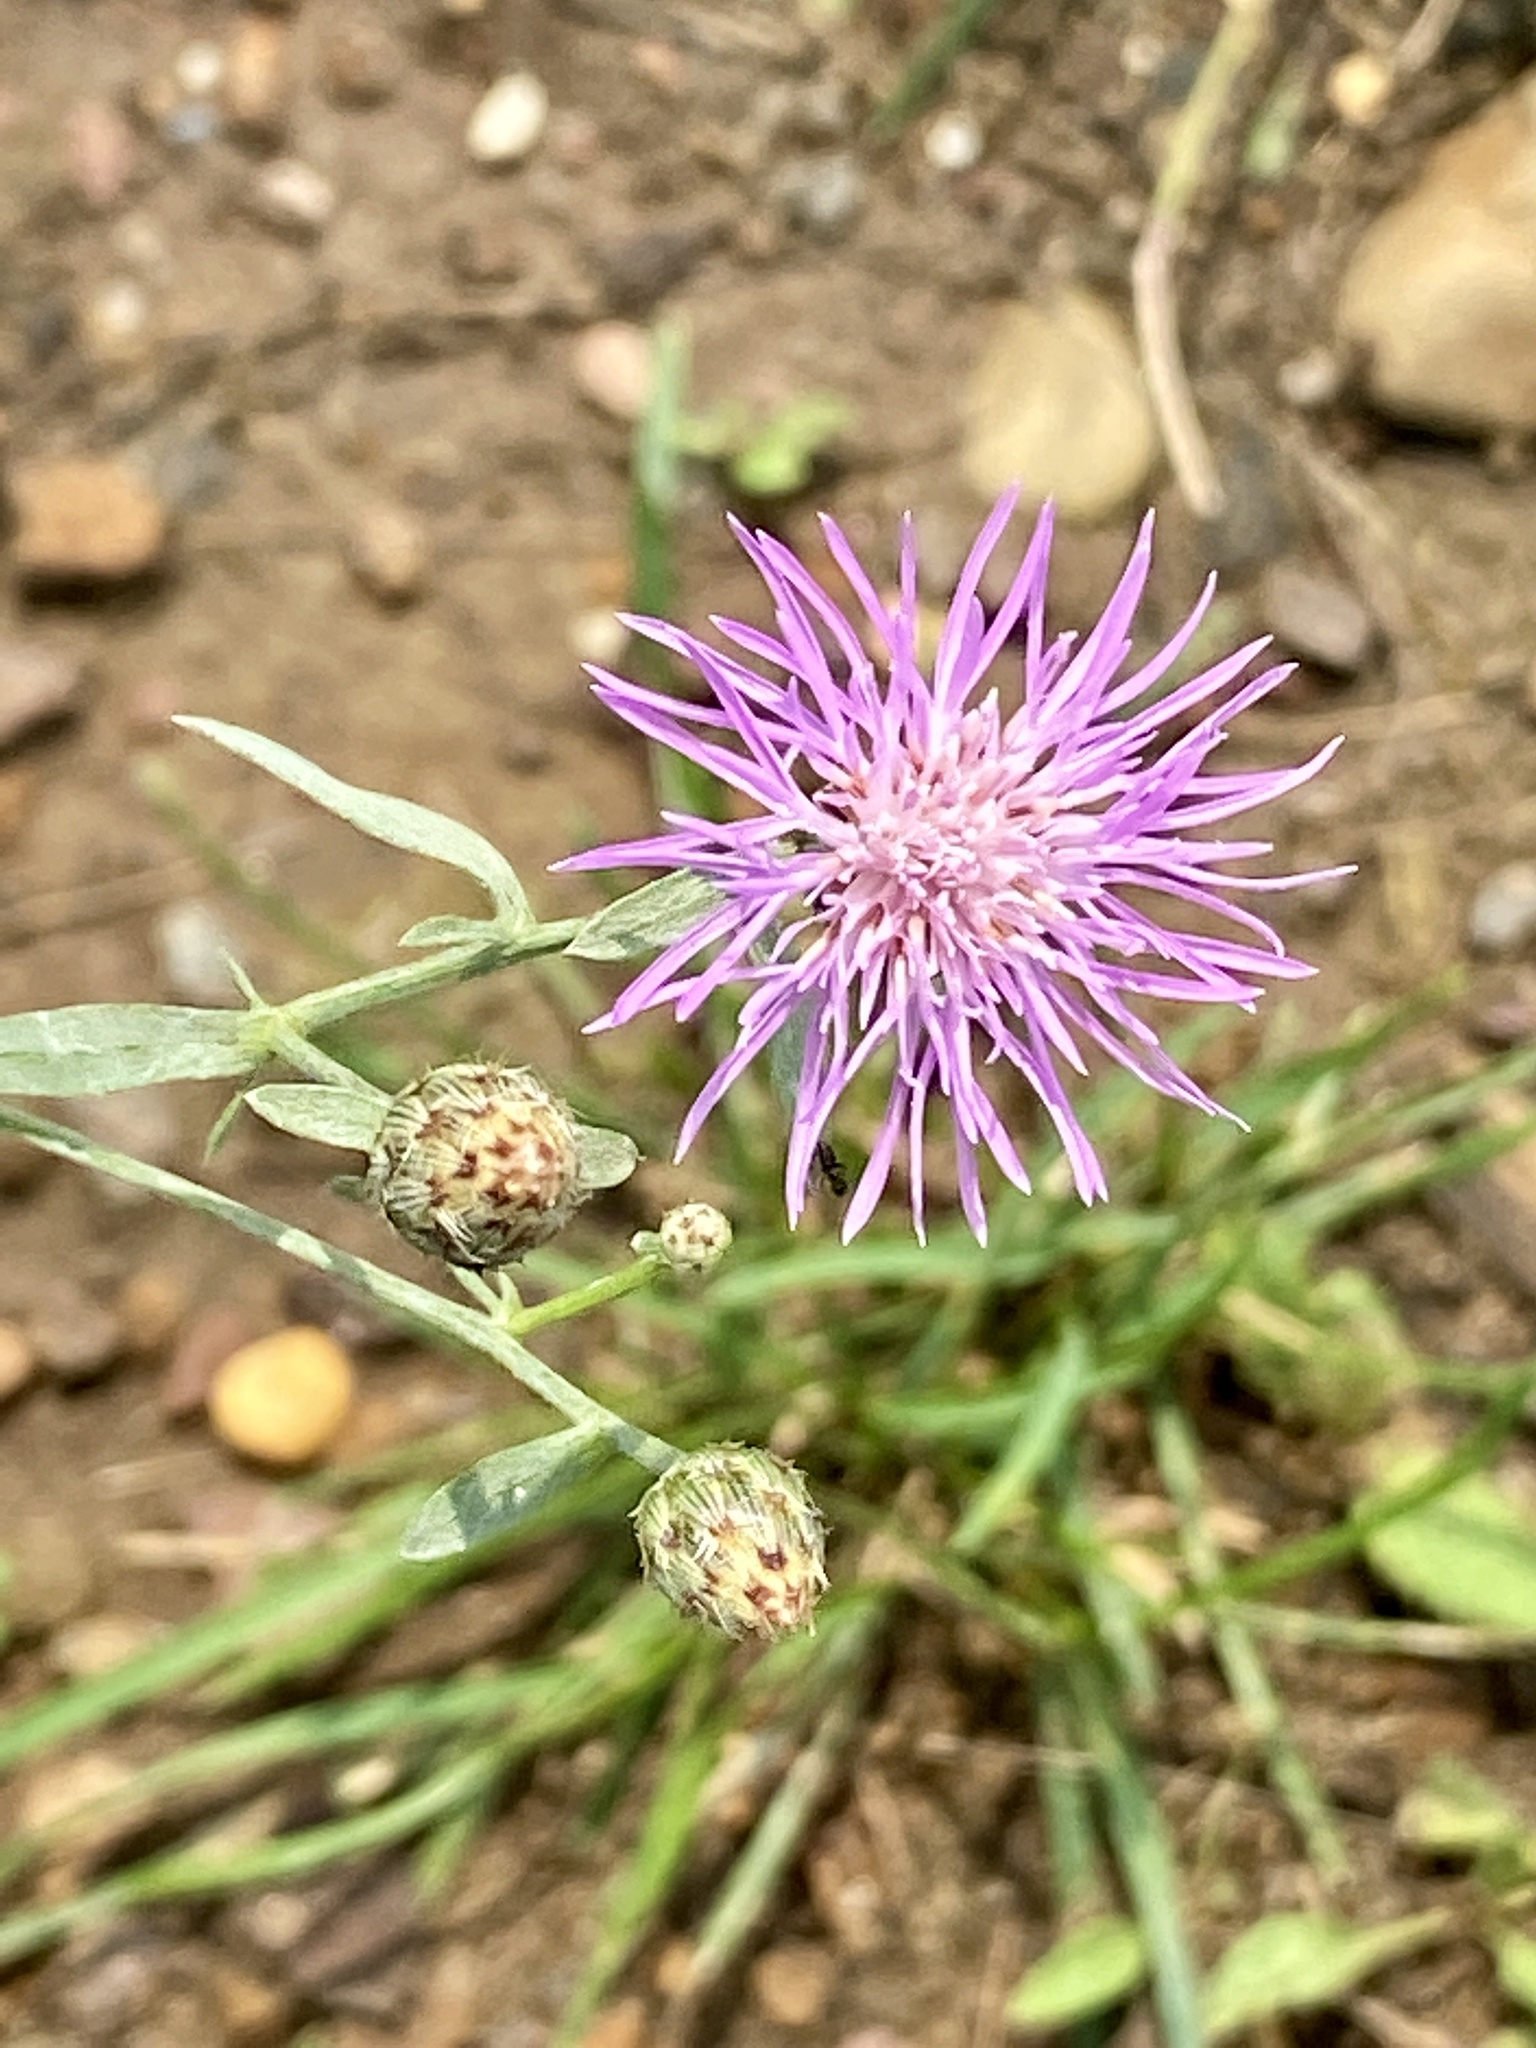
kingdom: Plantae
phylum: Tracheophyta
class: Magnoliopsida
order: Asterales
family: Asteraceae
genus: Centaurea
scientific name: Centaurea stoebe
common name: Spotted knapweed
